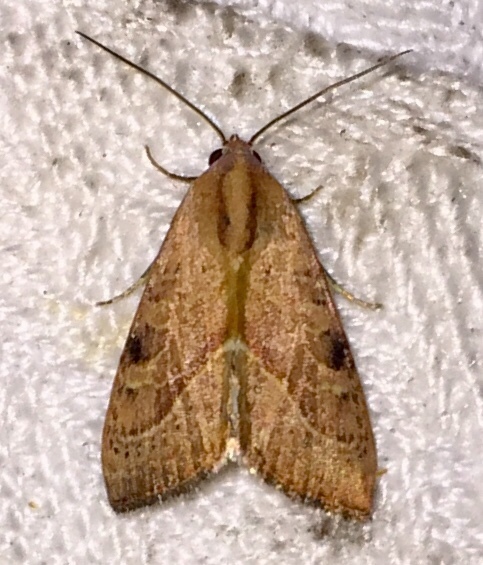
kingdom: Animalia
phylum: Arthropoda
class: Insecta
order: Lepidoptera
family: Noctuidae
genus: Galgula
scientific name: Galgula partita
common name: Wedgeling
